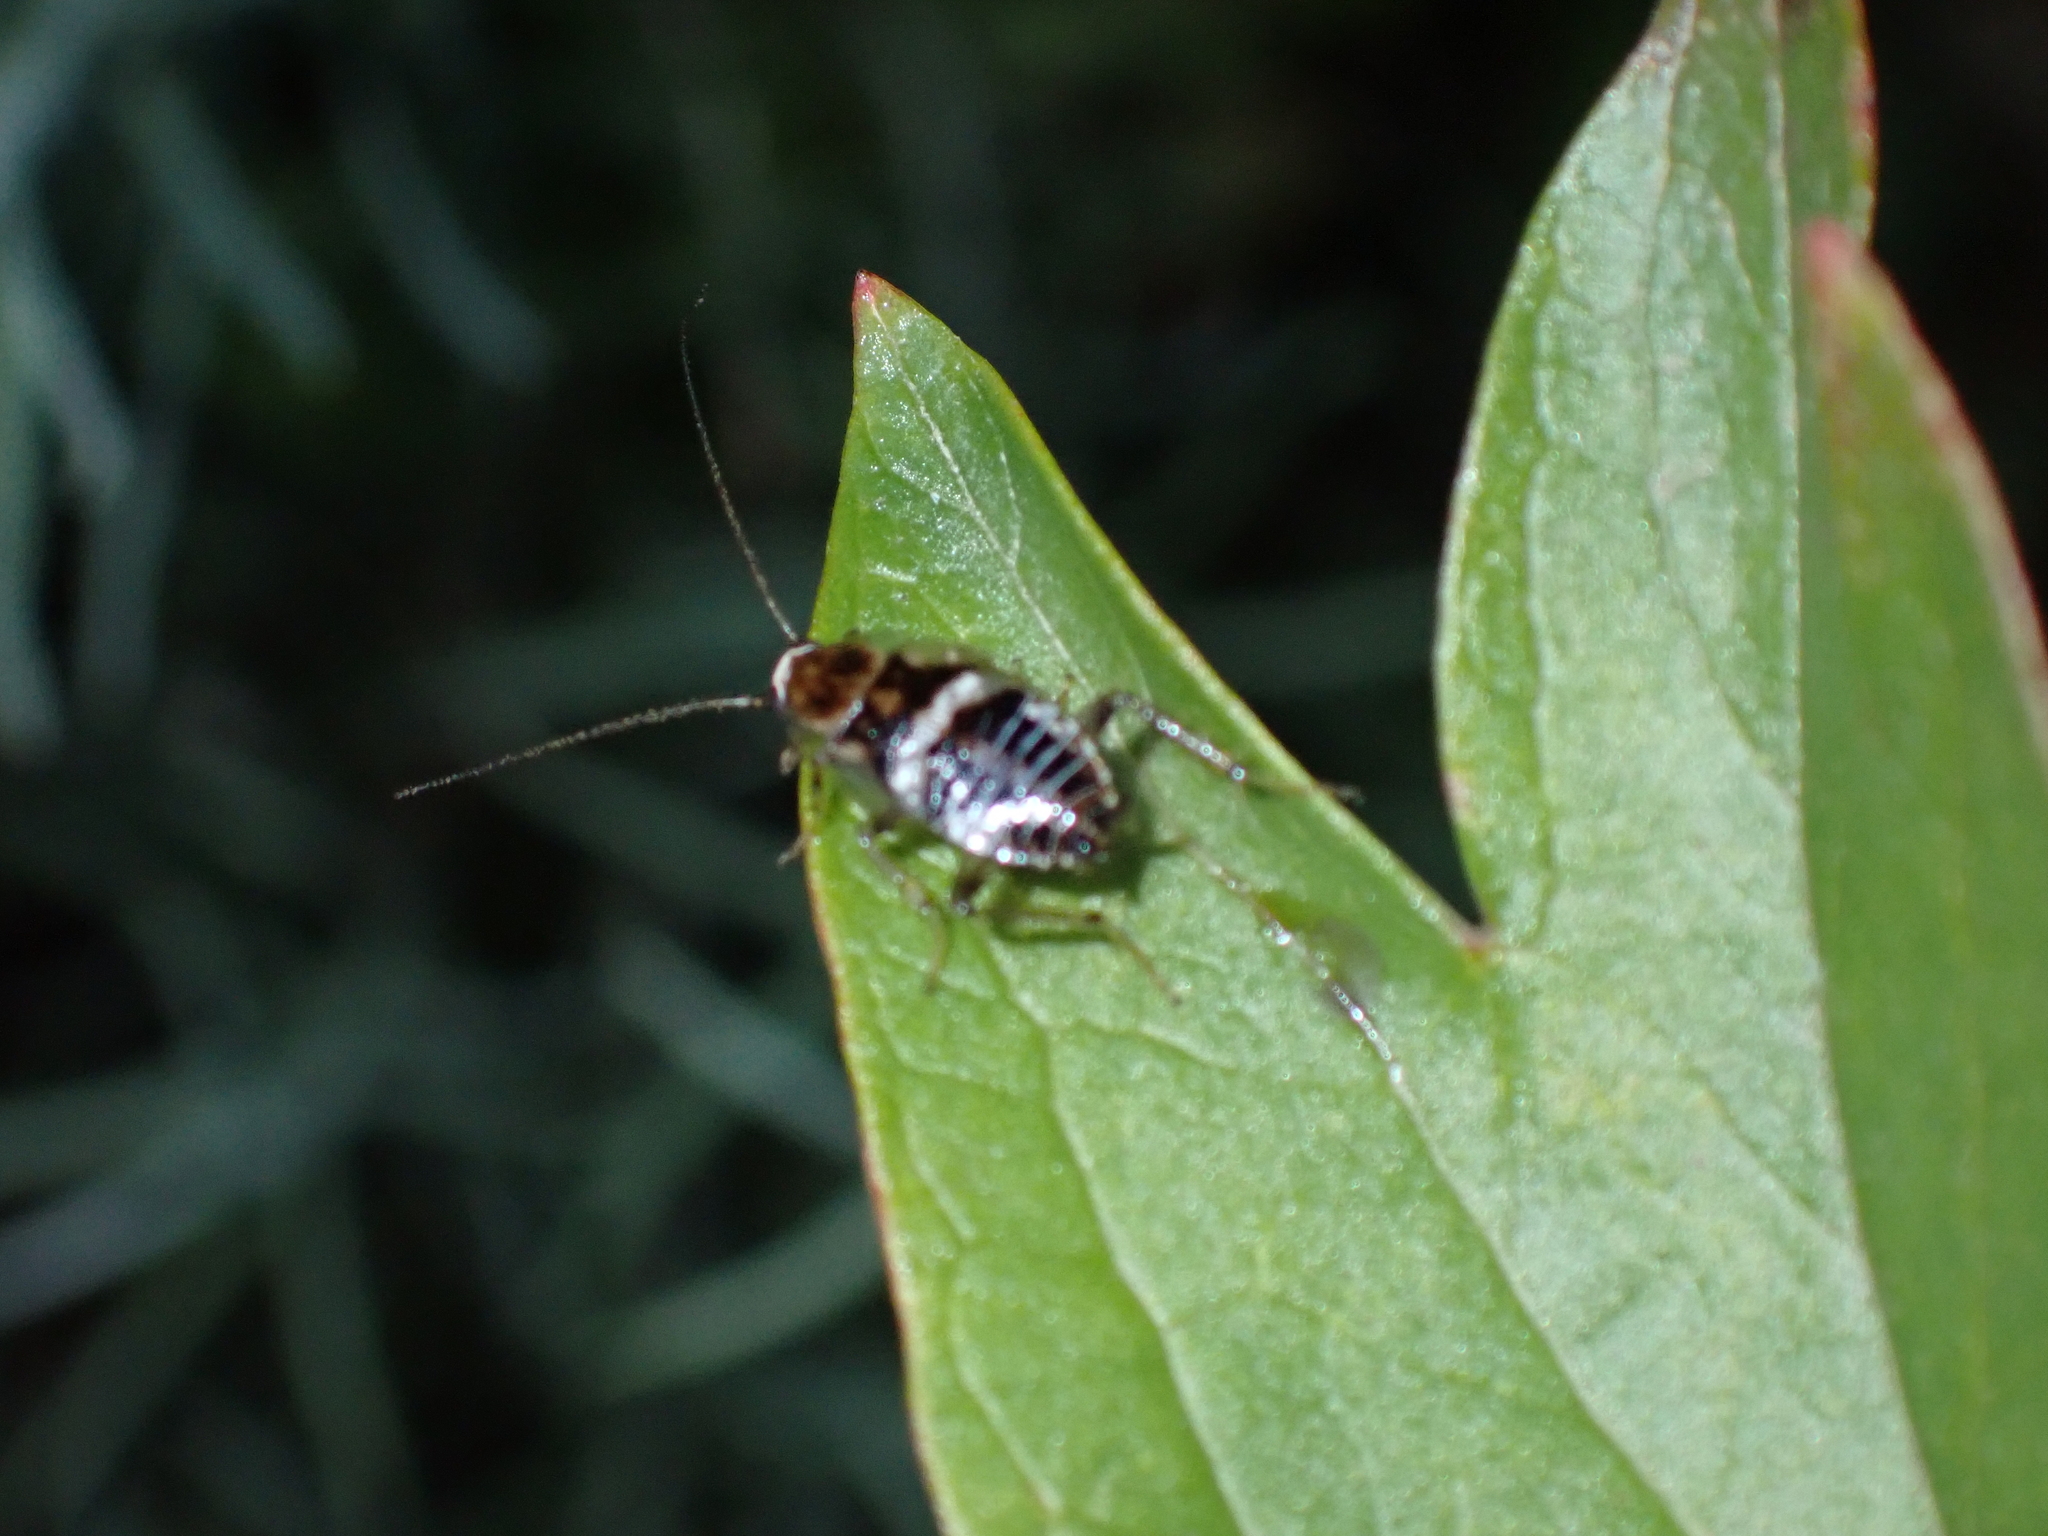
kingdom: Animalia
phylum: Arthropoda
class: Insecta
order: Blattodea
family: Ectobiidae
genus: Planuncus
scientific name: Planuncus vinzi
